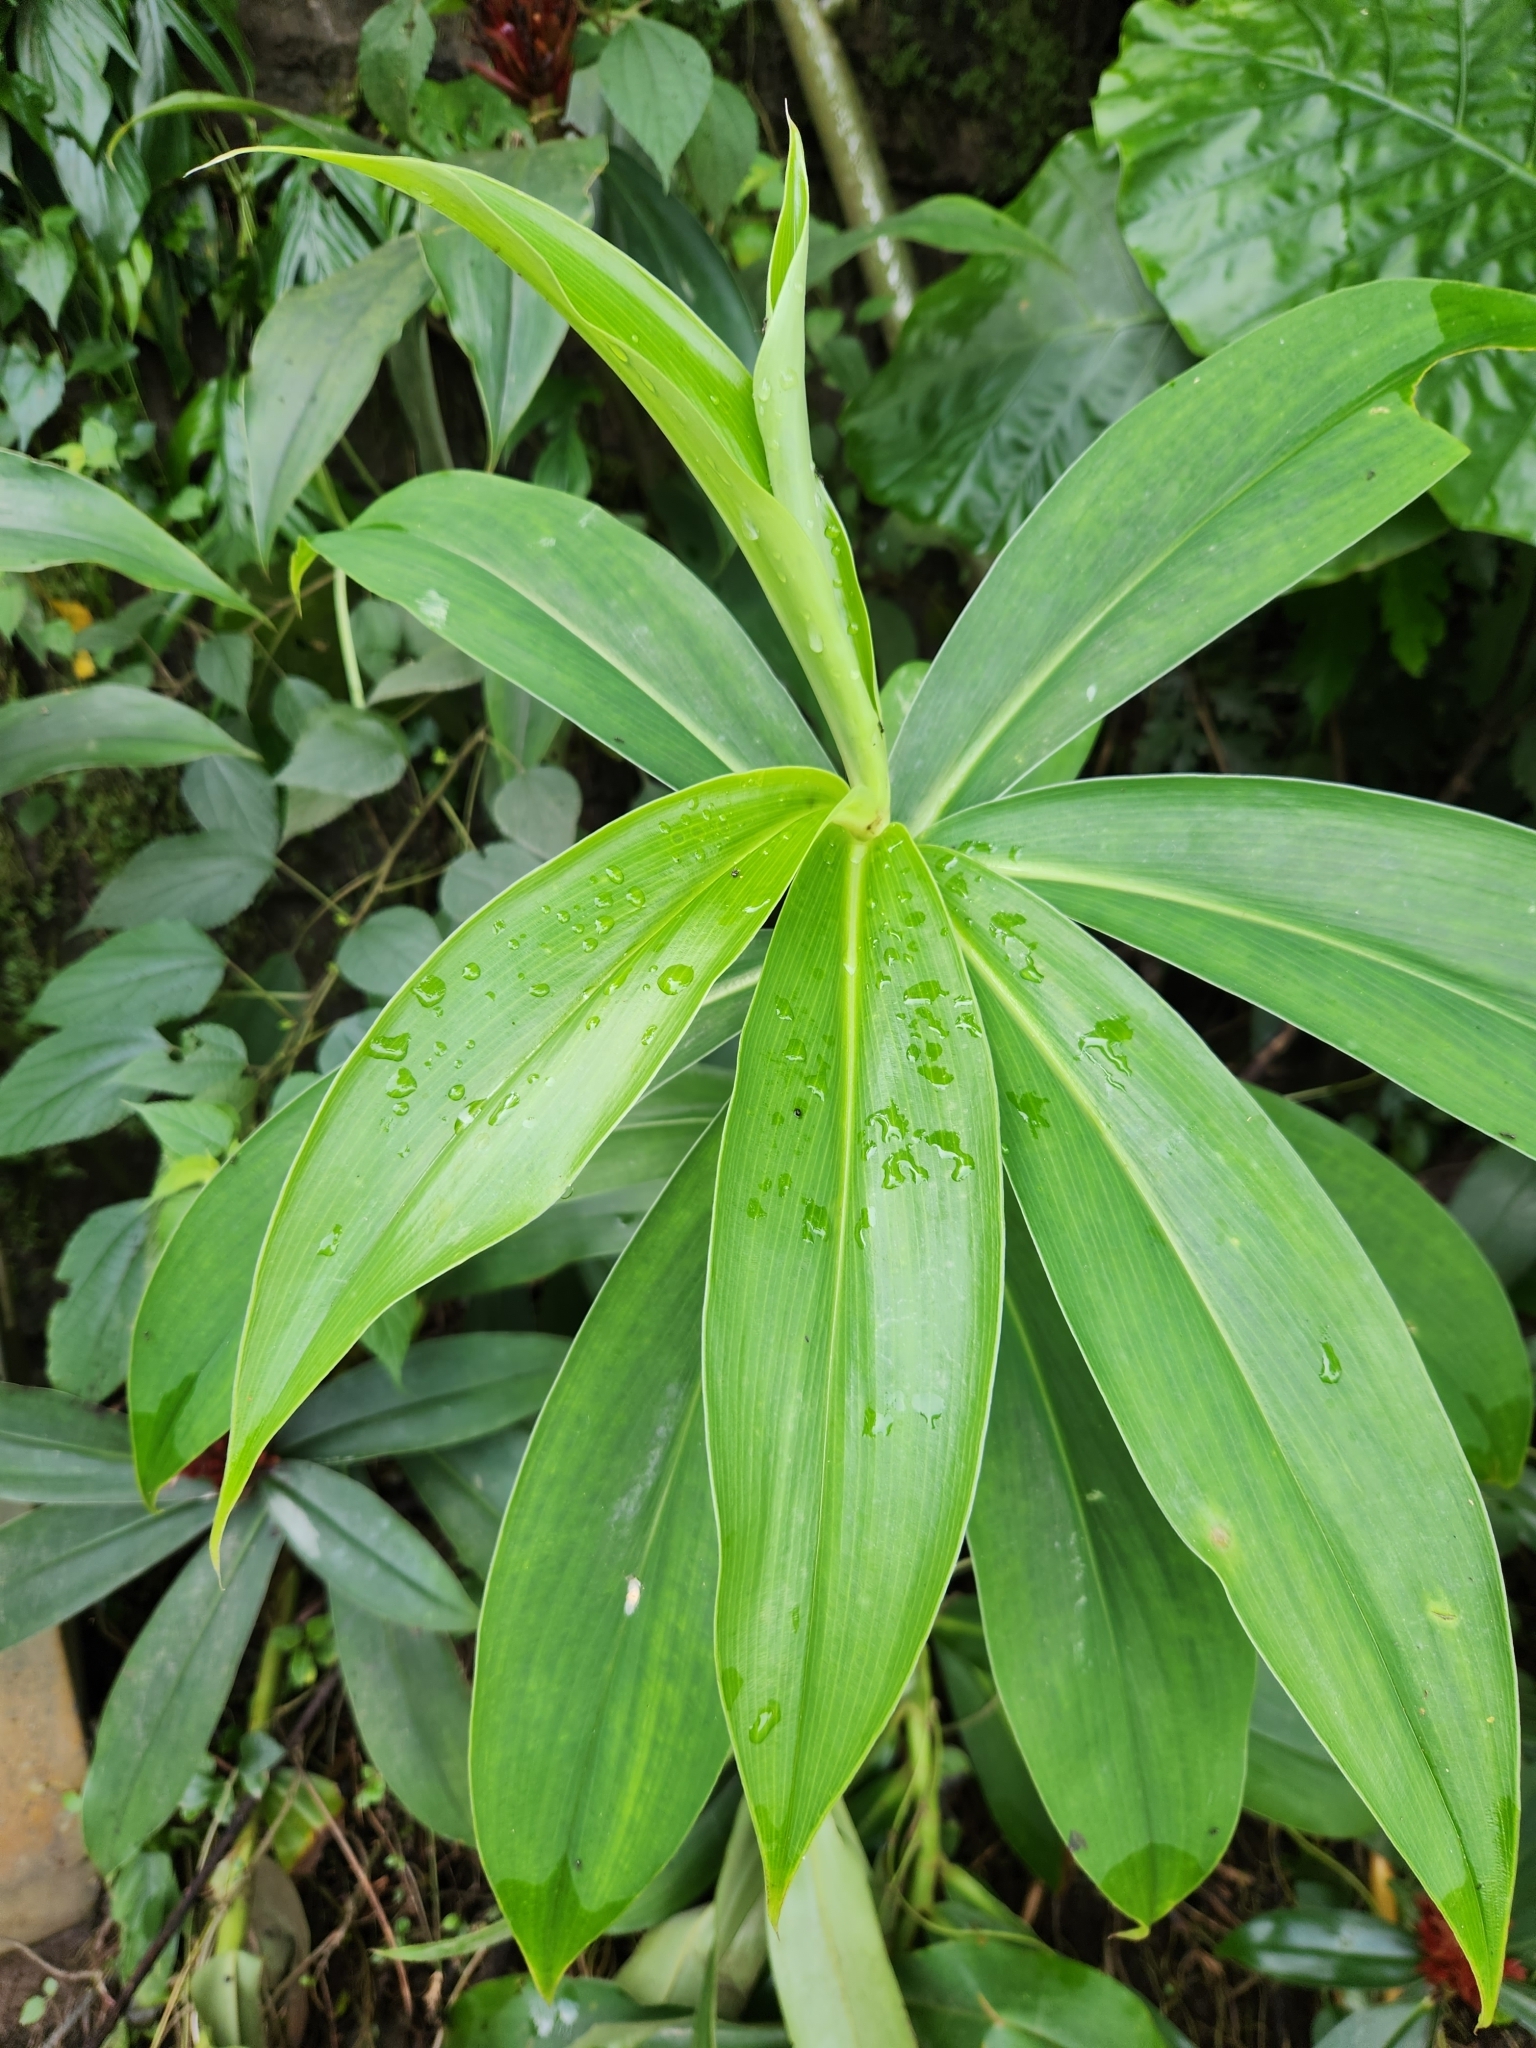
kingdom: Plantae
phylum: Tracheophyta
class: Liliopsida
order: Zingiberales
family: Costaceae
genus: Hellenia
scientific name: Hellenia speciosa
